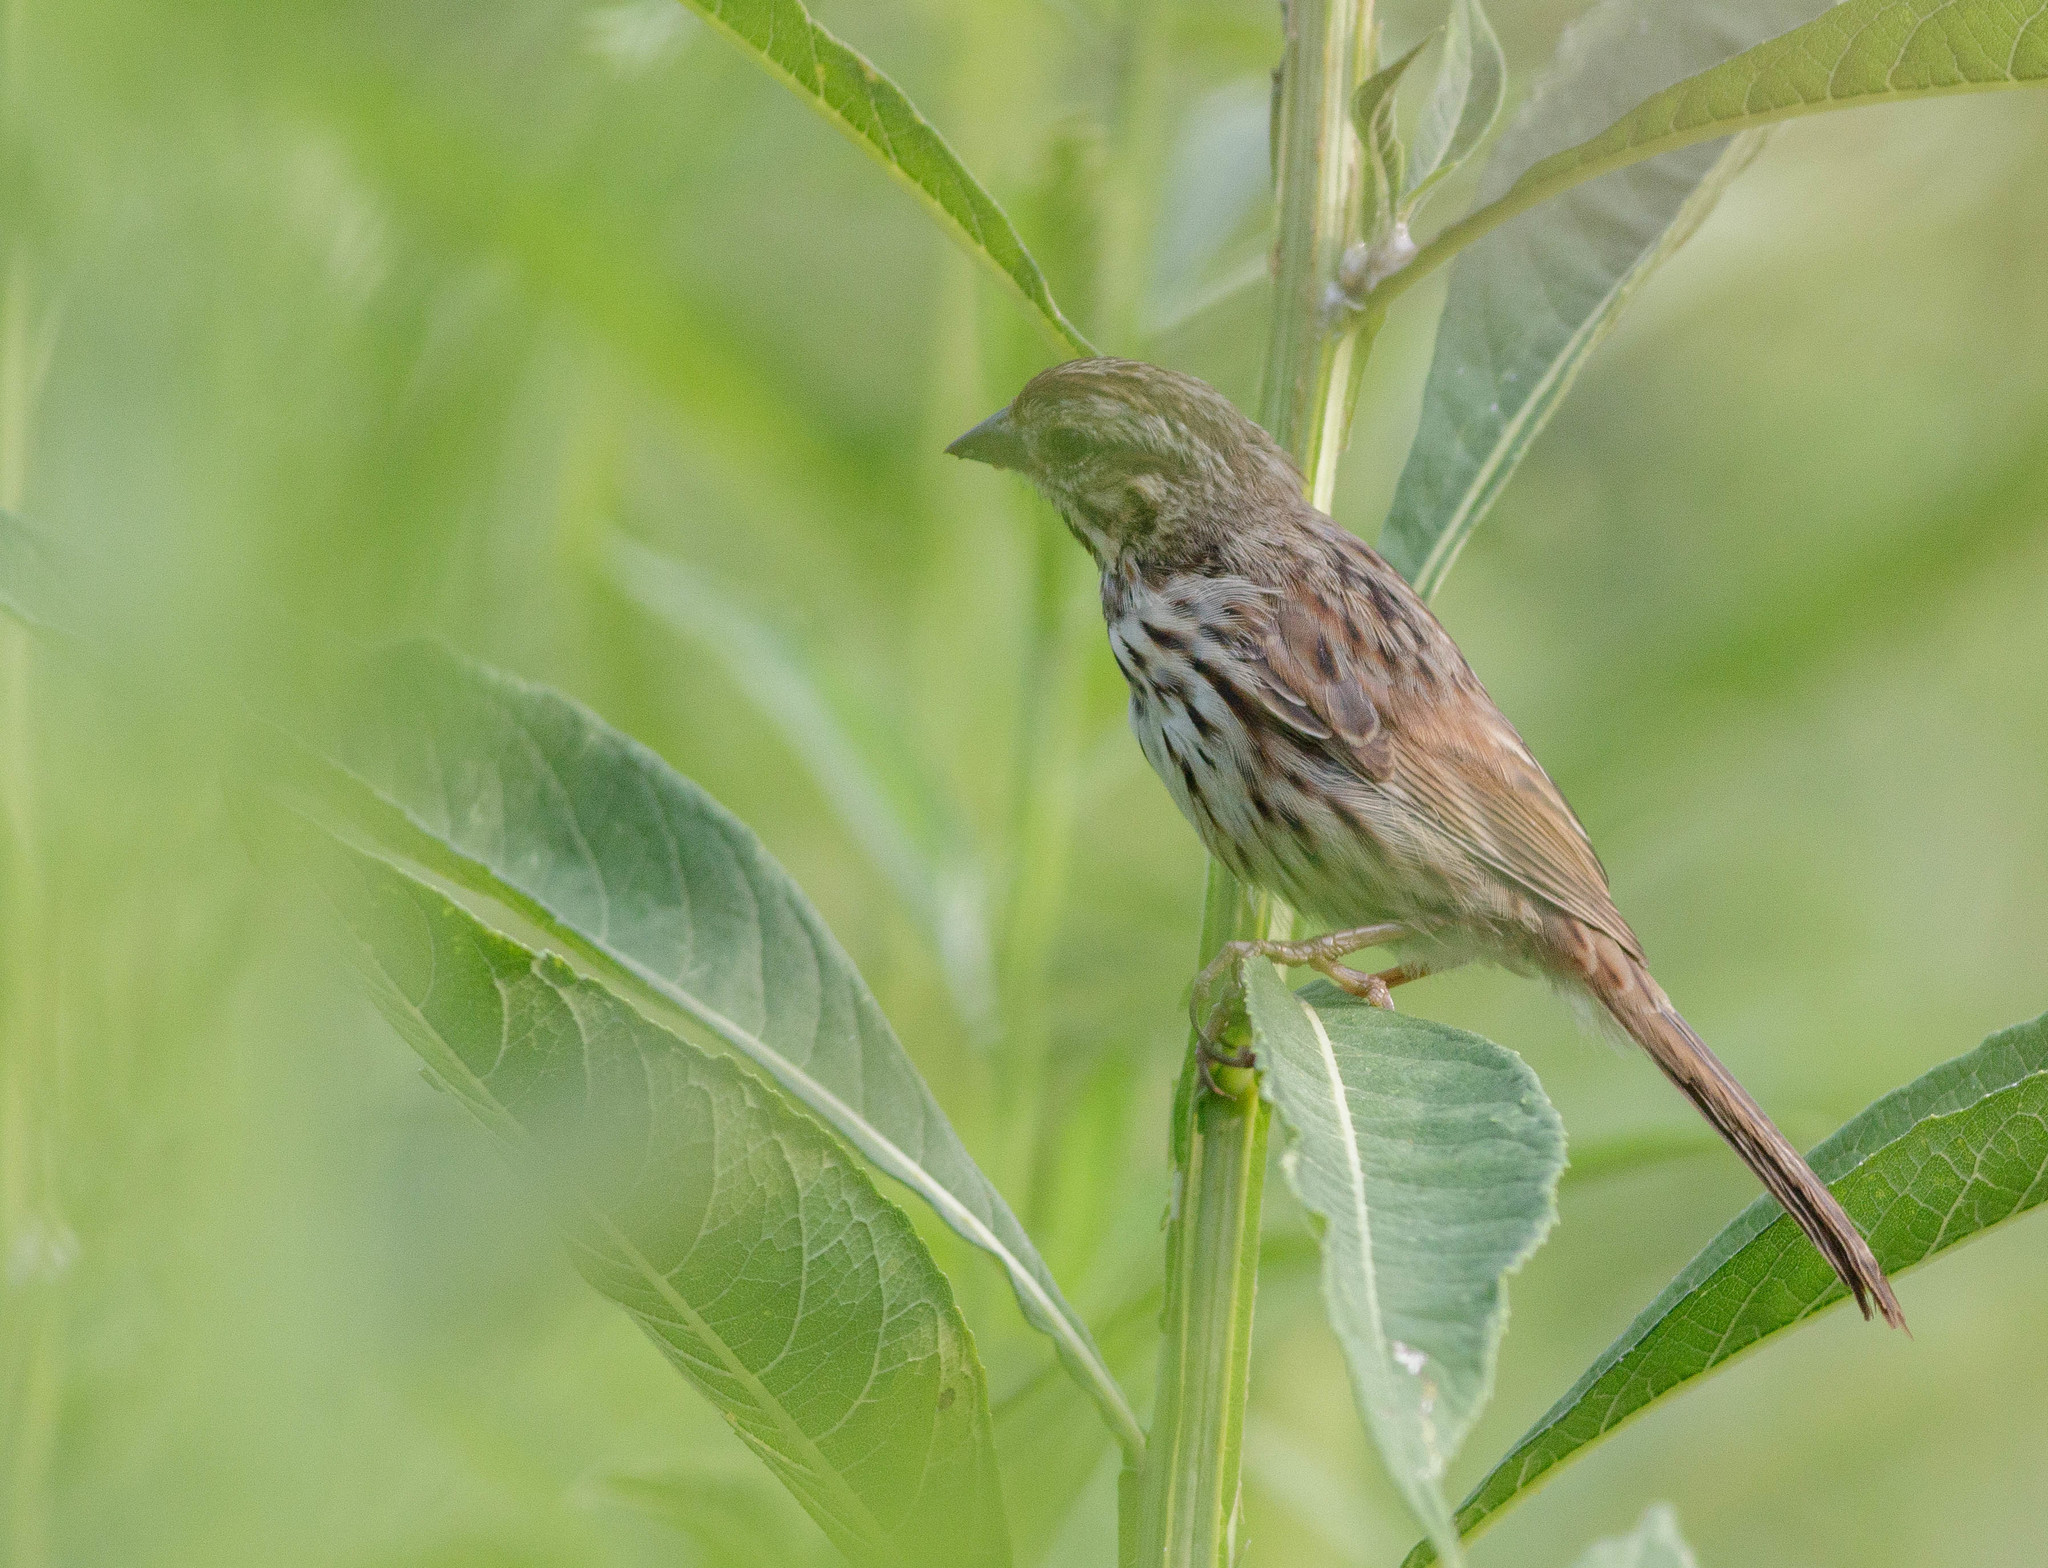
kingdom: Animalia
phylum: Chordata
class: Aves
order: Passeriformes
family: Passerellidae
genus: Melospiza
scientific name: Melospiza melodia
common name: Song sparrow
